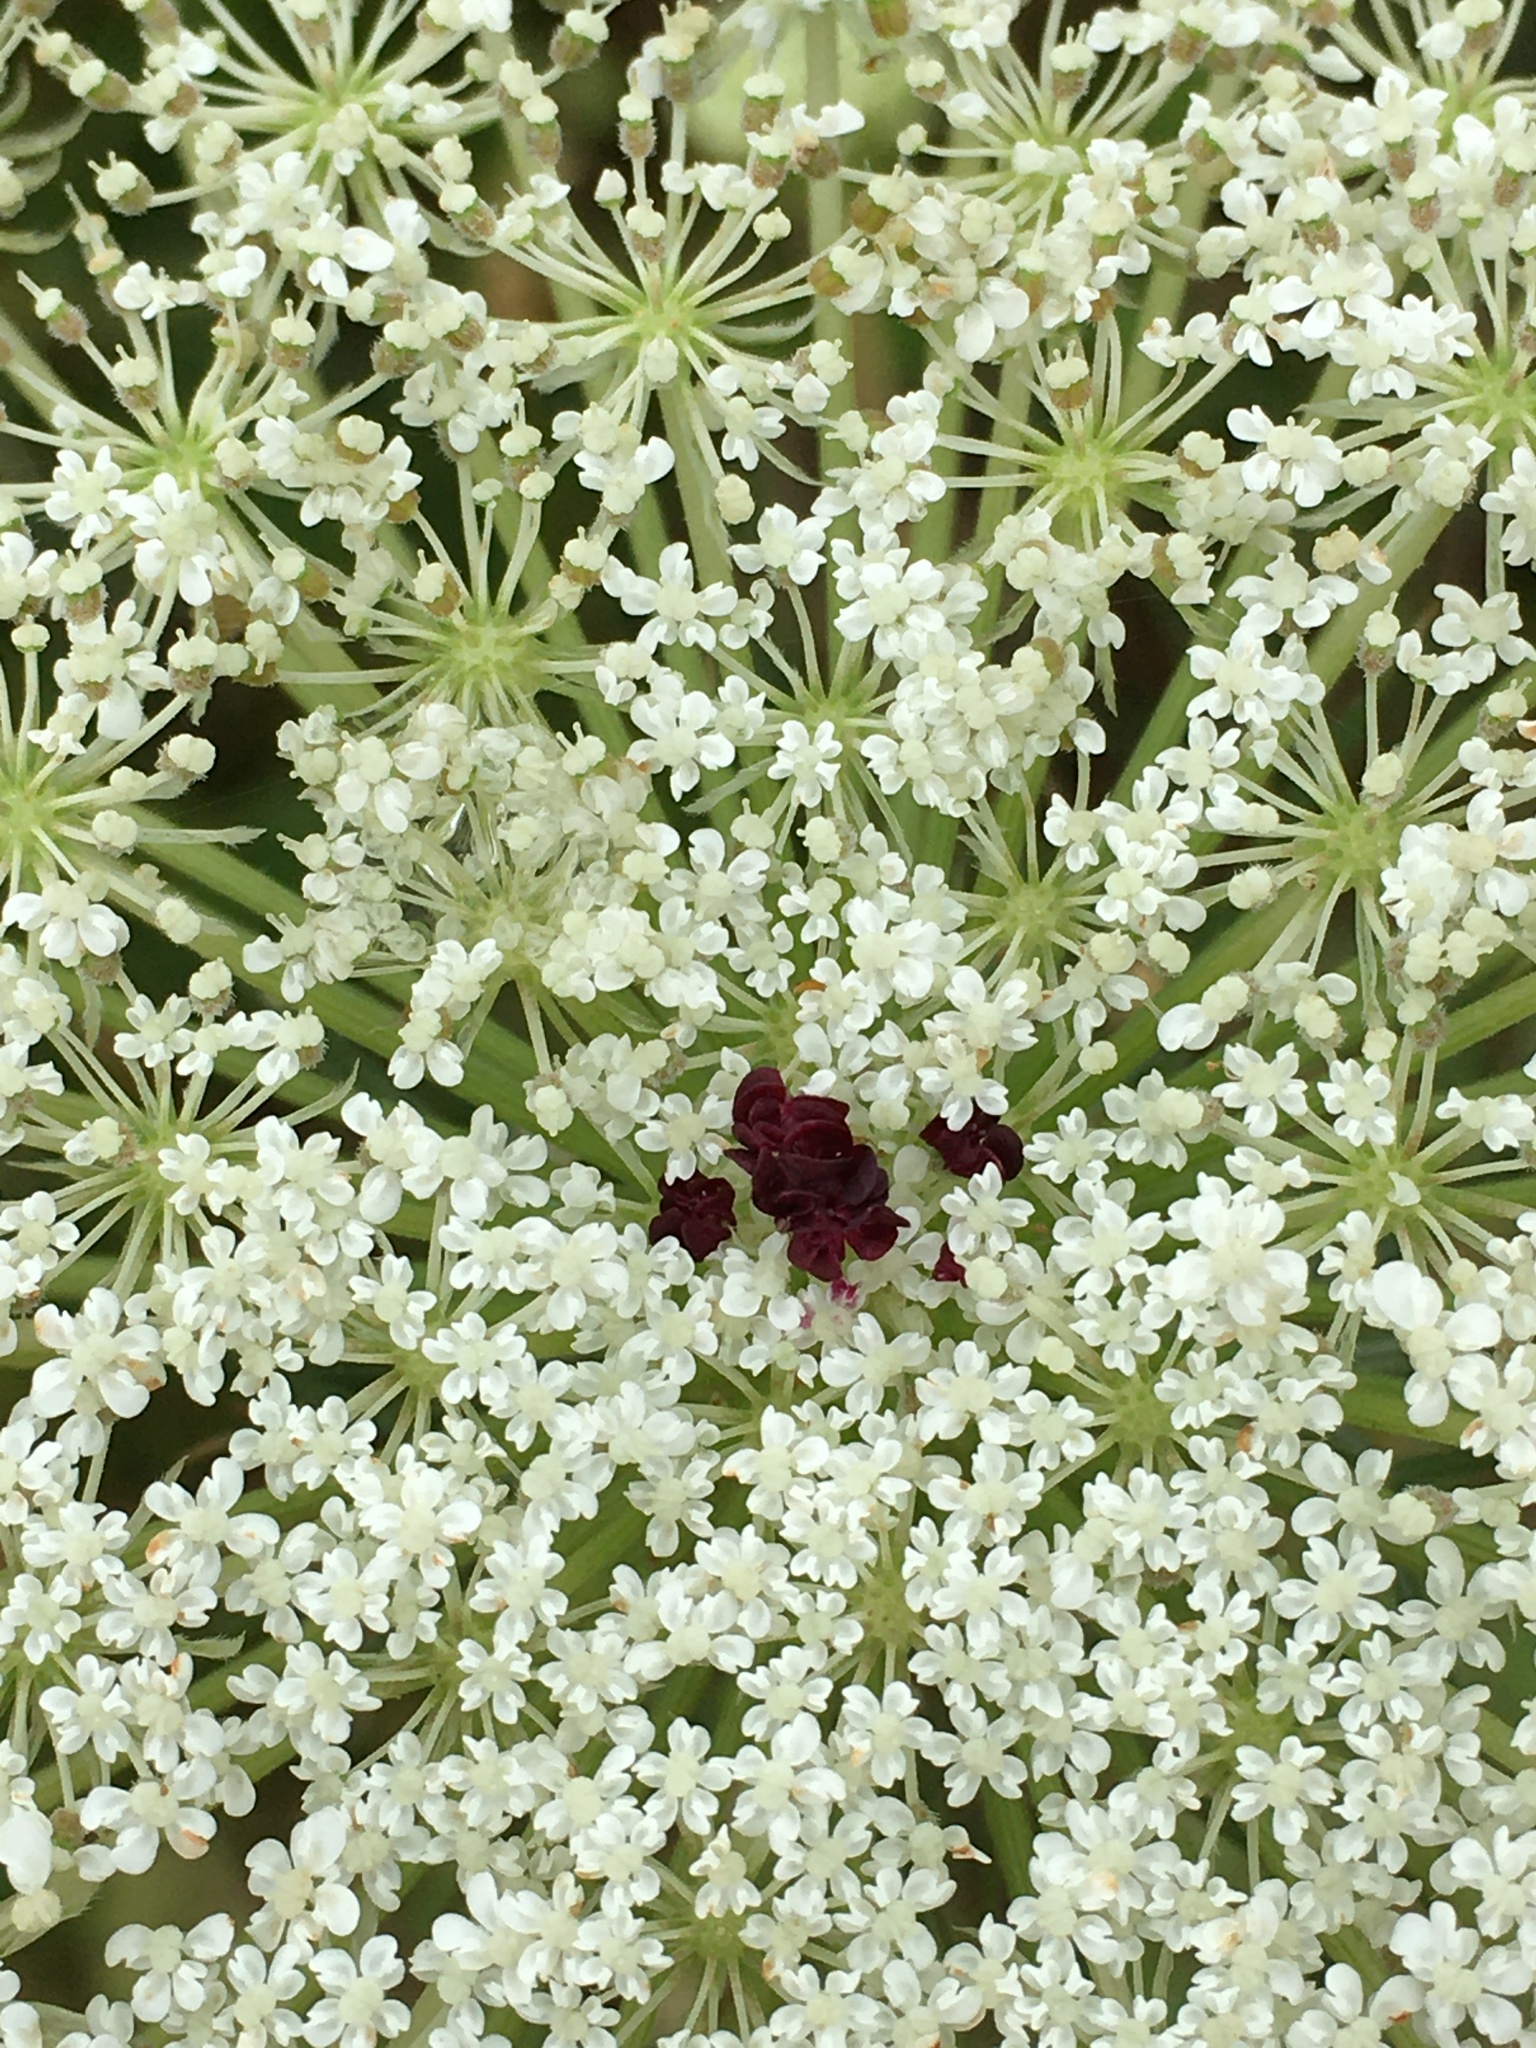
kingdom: Plantae
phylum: Tracheophyta
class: Magnoliopsida
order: Apiales
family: Apiaceae
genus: Daucus
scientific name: Daucus carota
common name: Wild carrot
